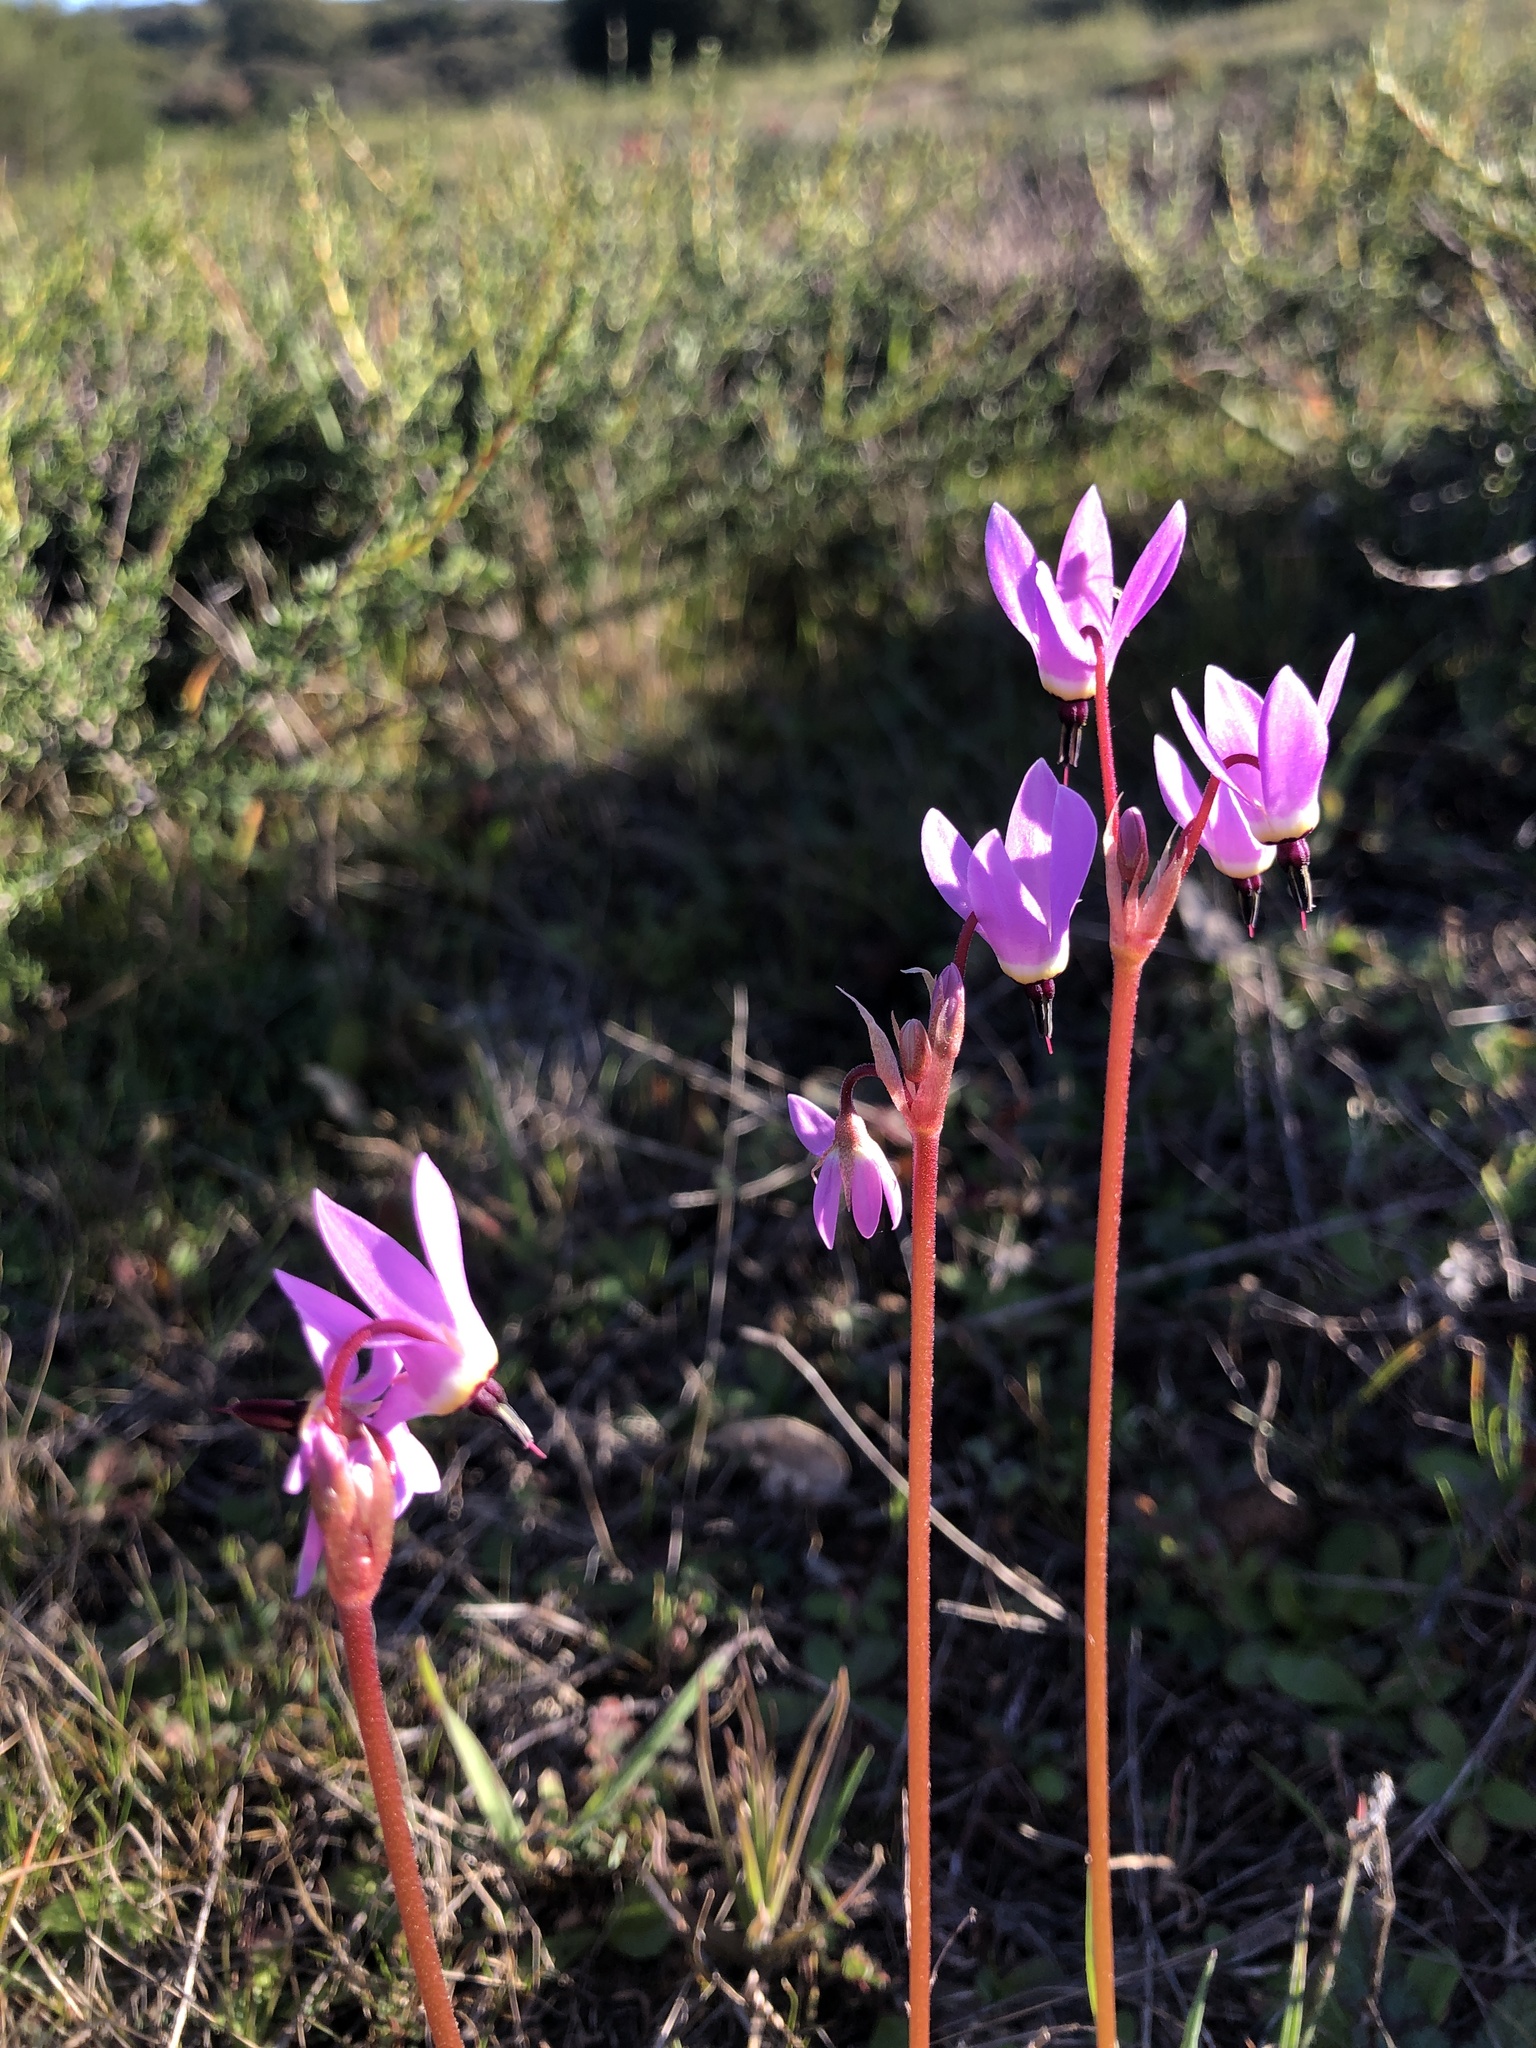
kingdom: Plantae
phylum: Tracheophyta
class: Magnoliopsida
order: Ericales
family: Primulaceae
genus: Dodecatheon
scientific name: Dodecatheon hendersonii
